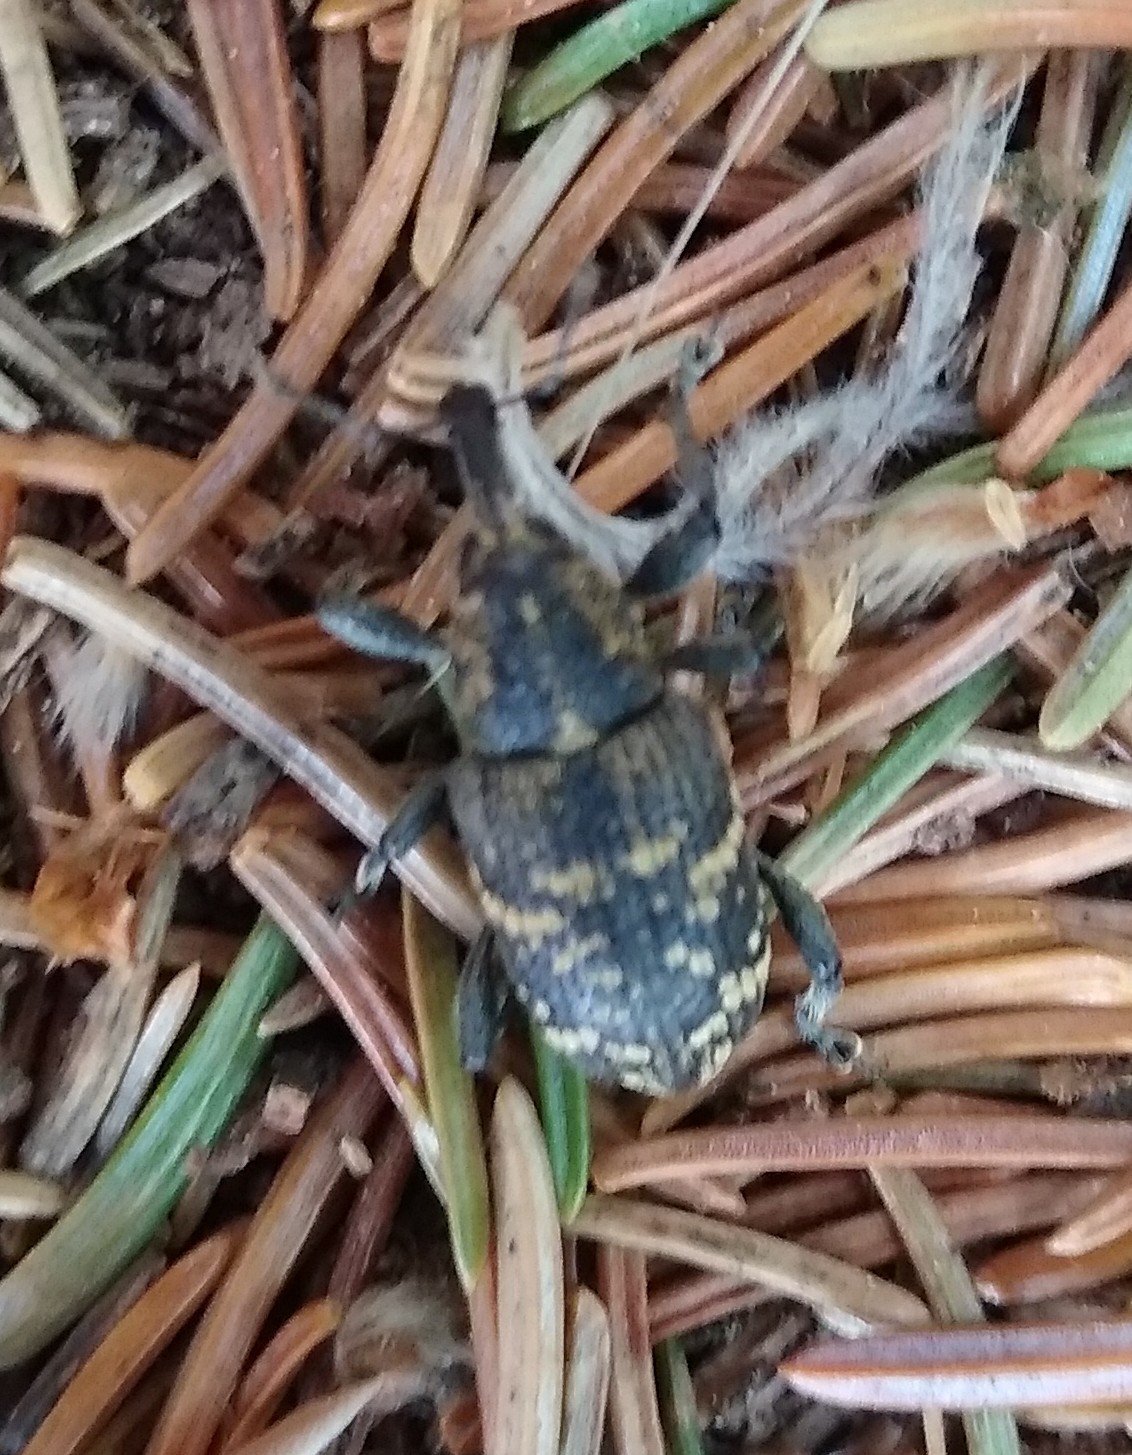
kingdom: Animalia
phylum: Arthropoda
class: Insecta
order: Coleoptera
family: Curculionidae
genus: Hylobius
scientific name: Hylobius abietis
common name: Large pine weevil
